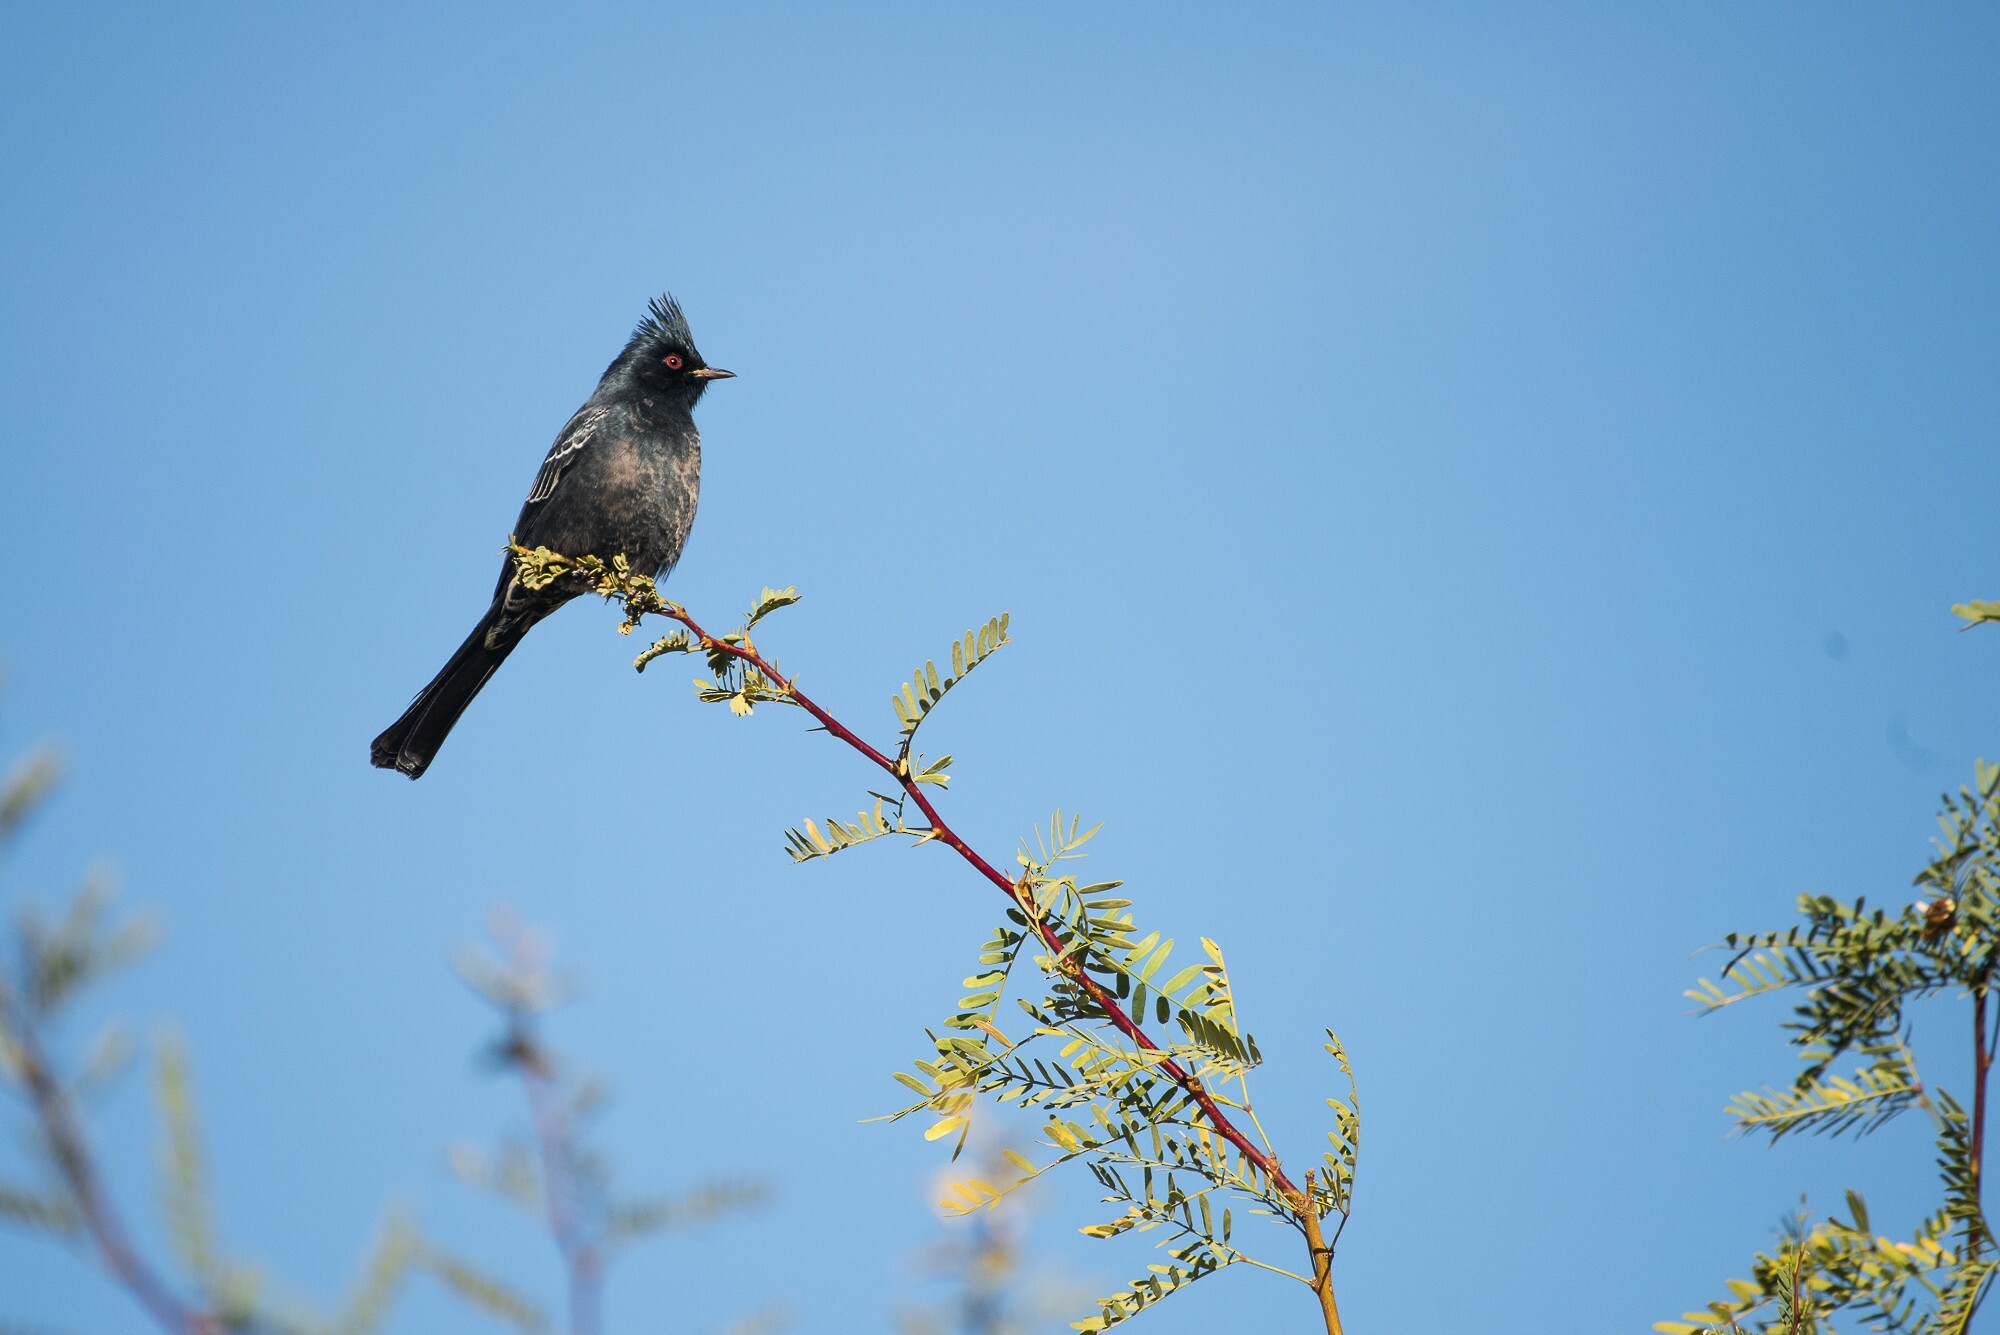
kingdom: Animalia
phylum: Chordata
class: Aves
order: Passeriformes
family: Ptilogonatidae
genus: Phainopepla
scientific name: Phainopepla nitens
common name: Phainopepla
